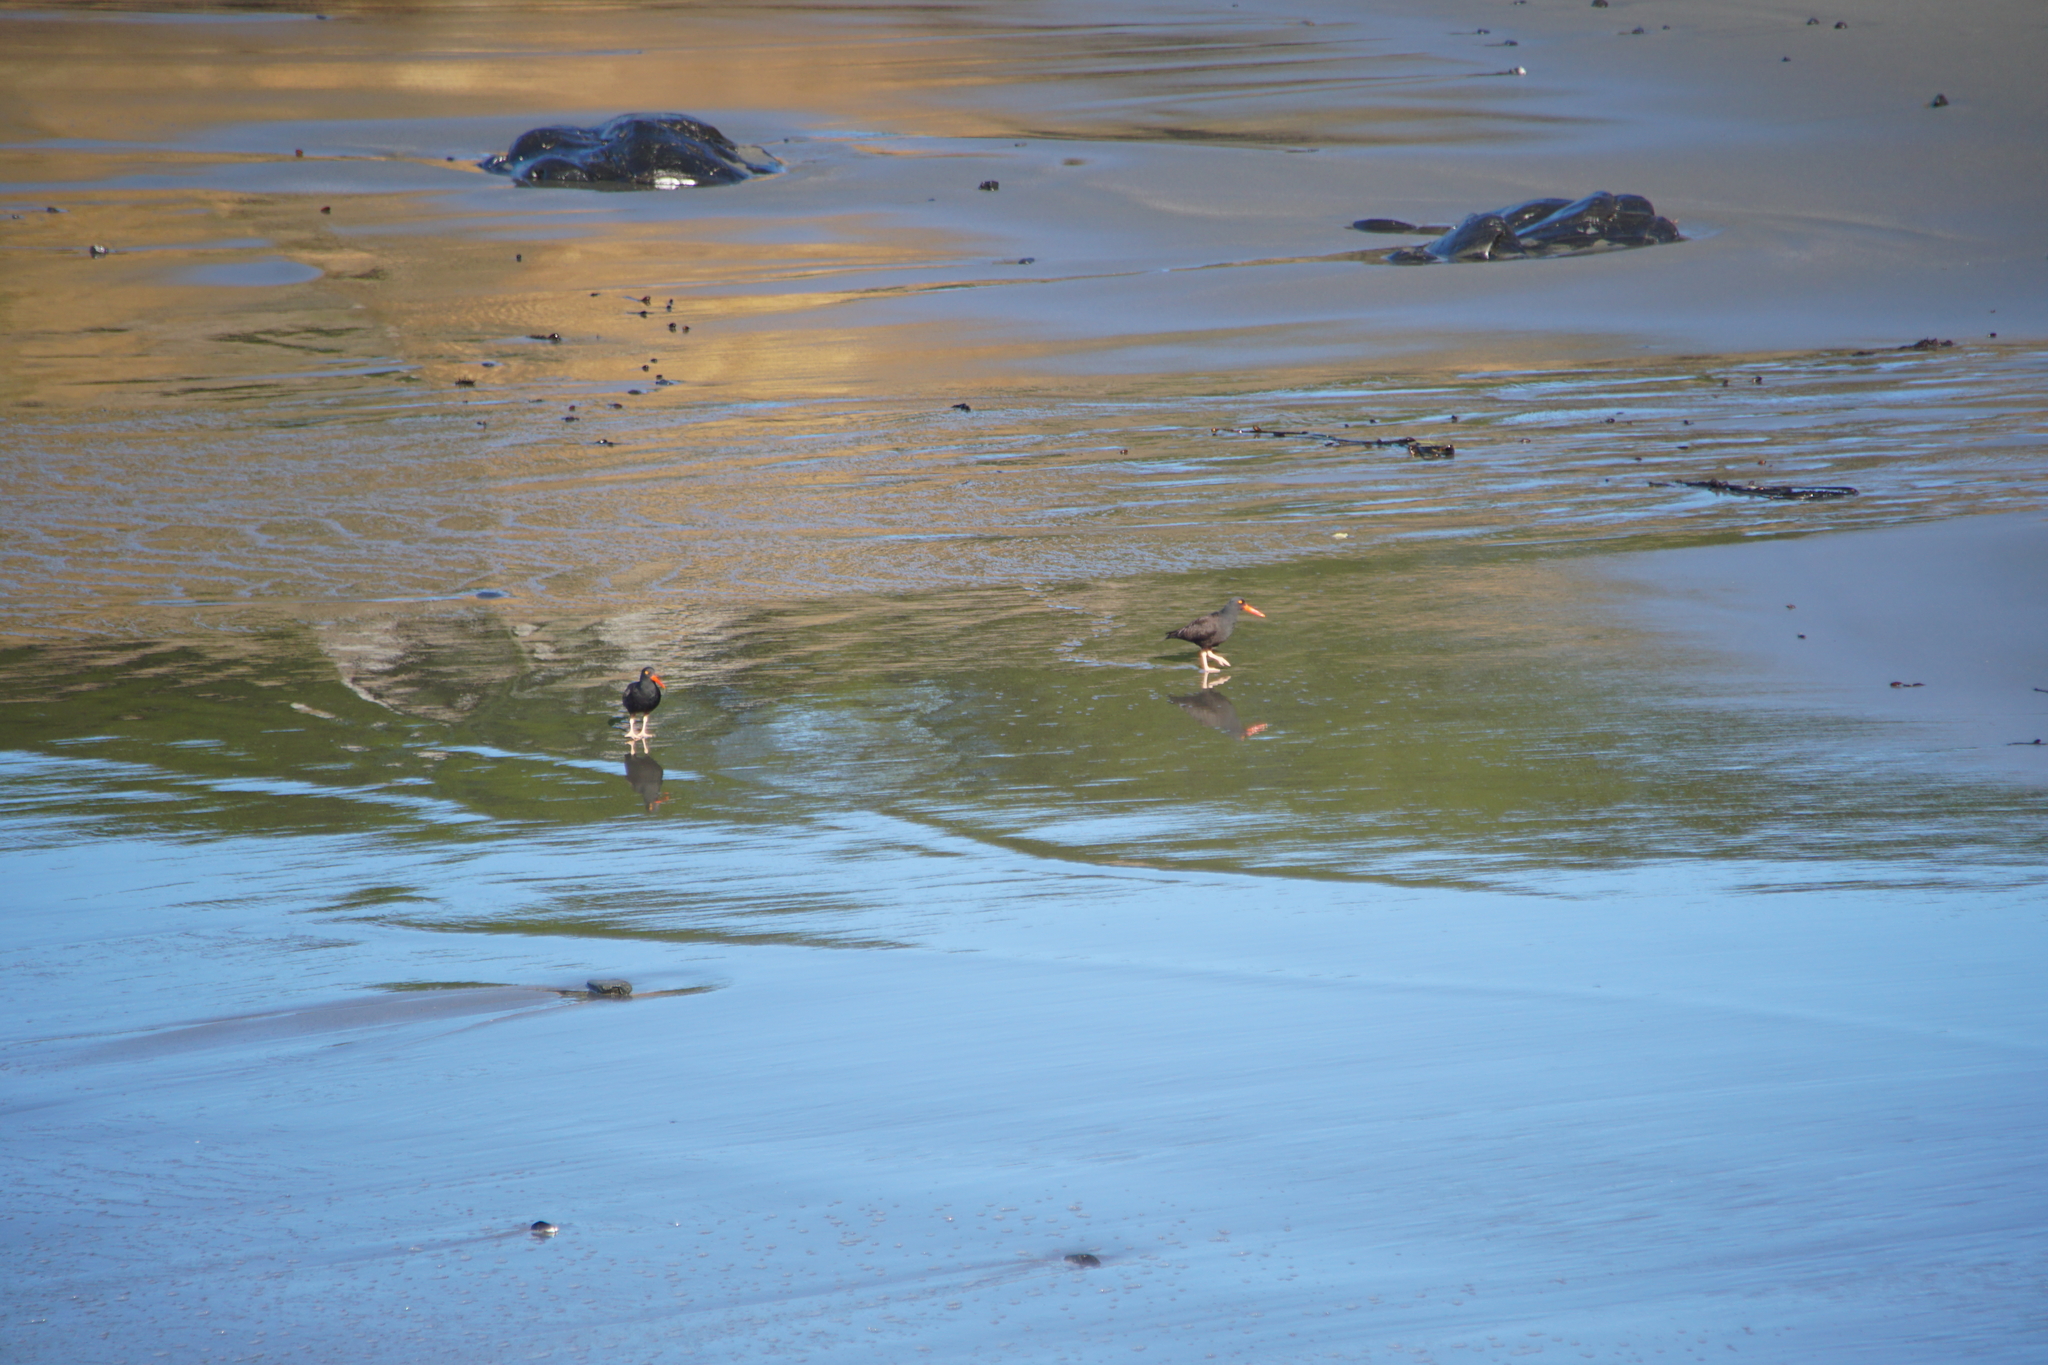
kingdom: Animalia
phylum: Chordata
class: Aves
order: Charadriiformes
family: Haematopodidae
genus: Haematopus
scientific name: Haematopus bachmani
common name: Black oystercatcher
